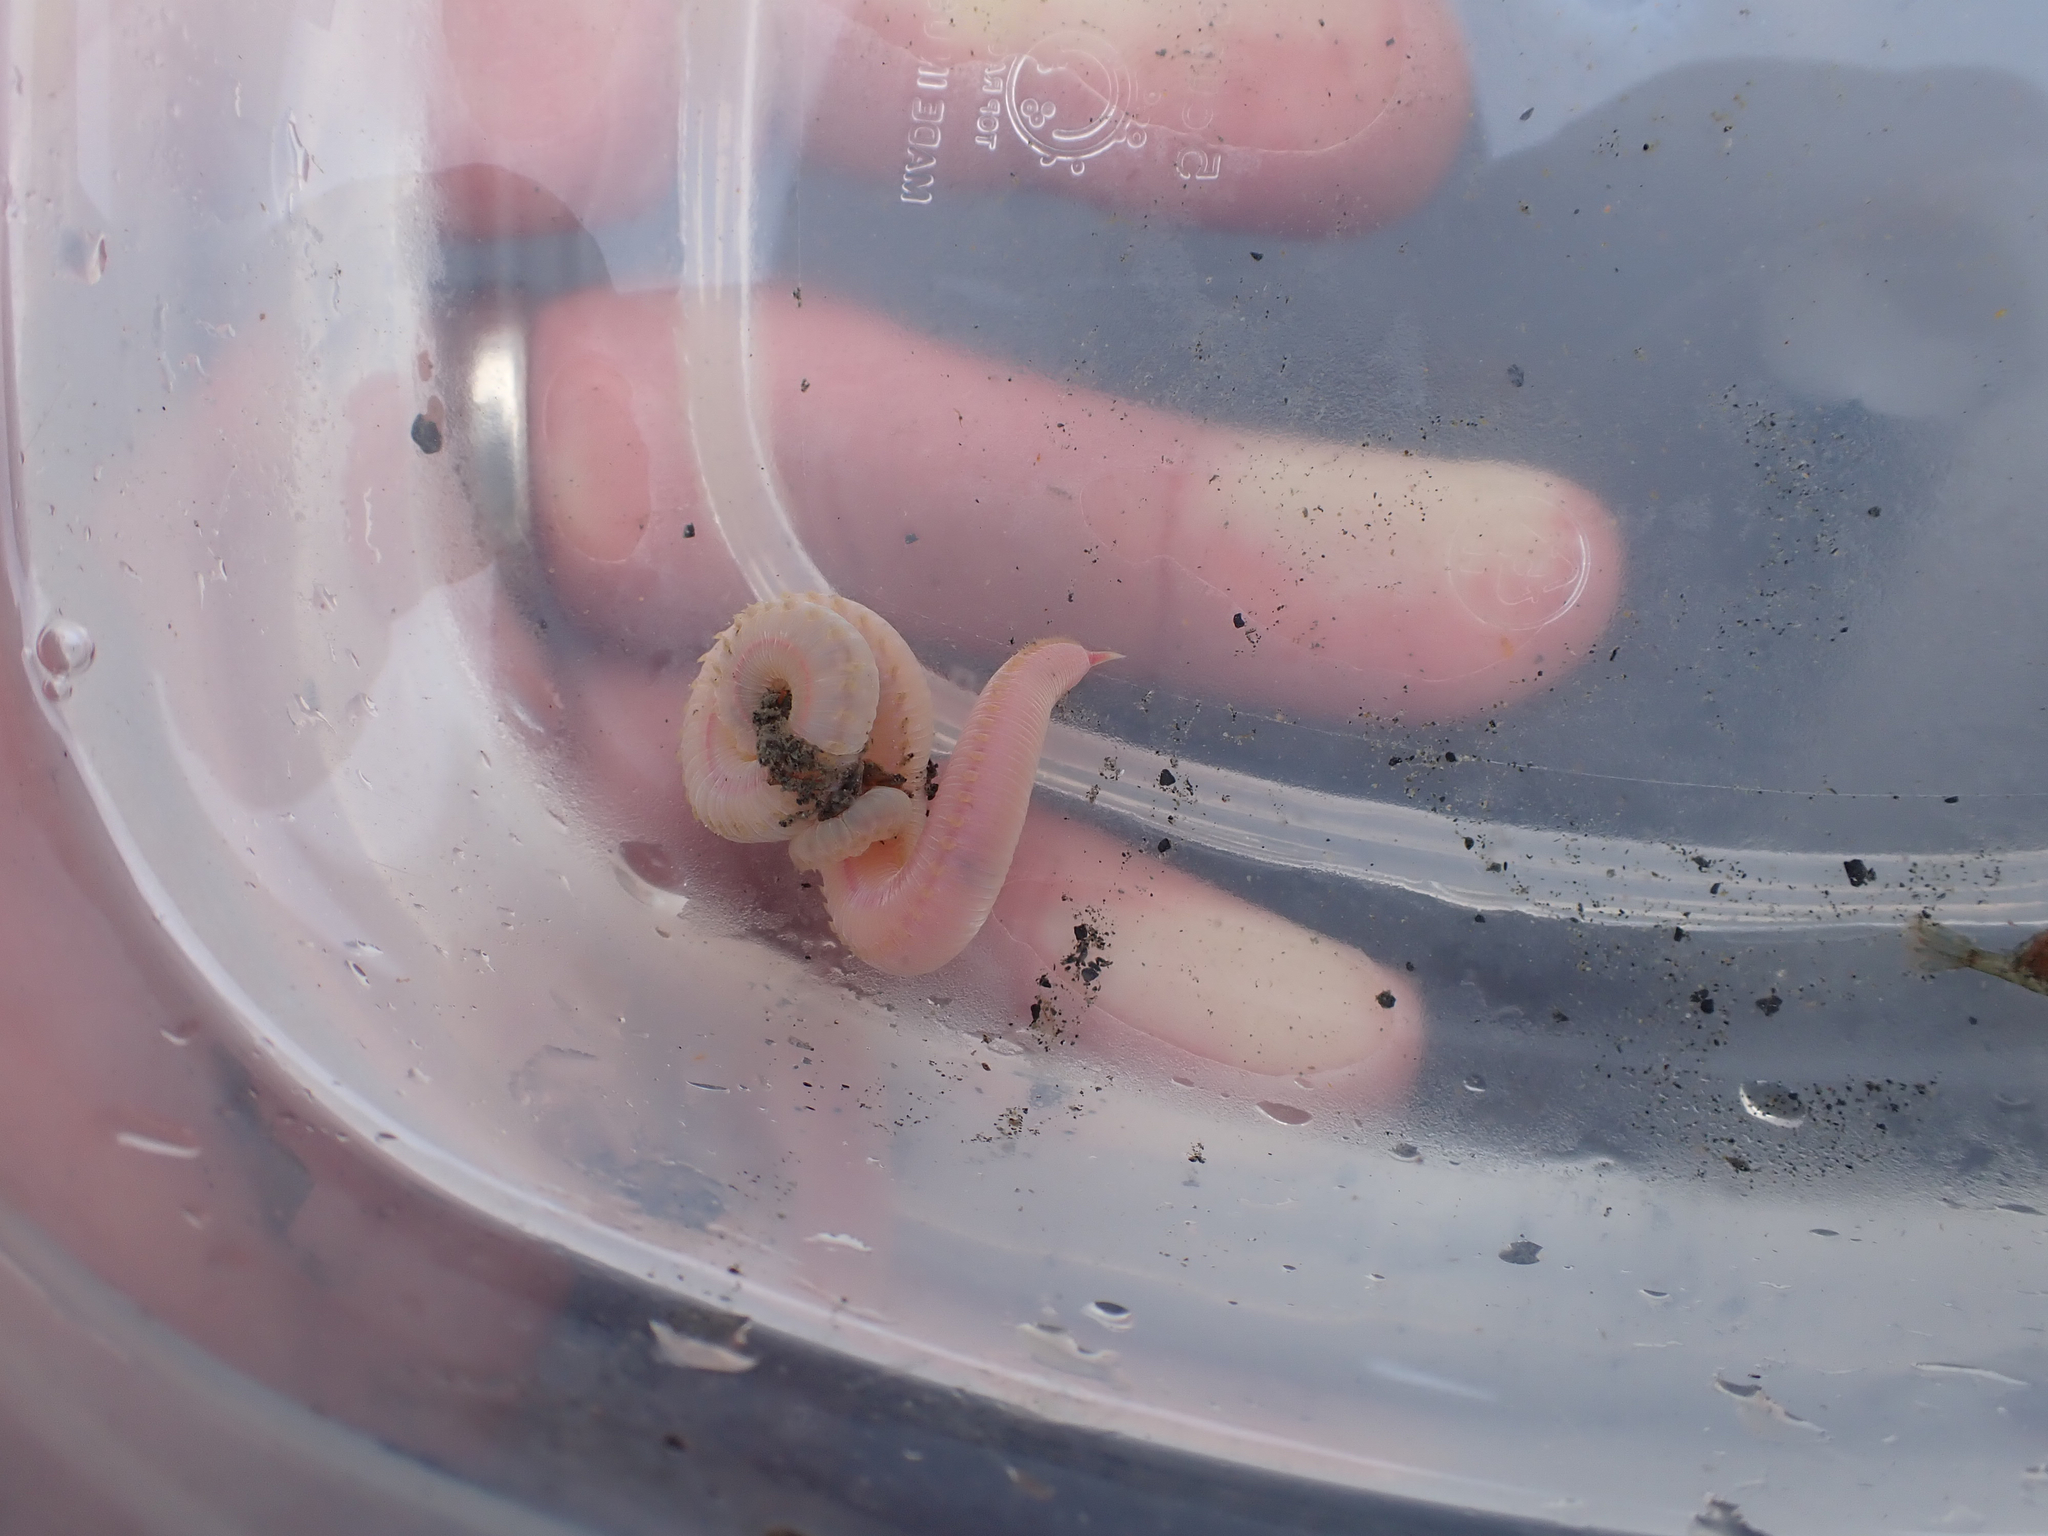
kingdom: Animalia
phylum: Annelida
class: Polychaeta
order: Phyllodocida
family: Glyceridae
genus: Hemipodia
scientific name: Hemipodia simplex
